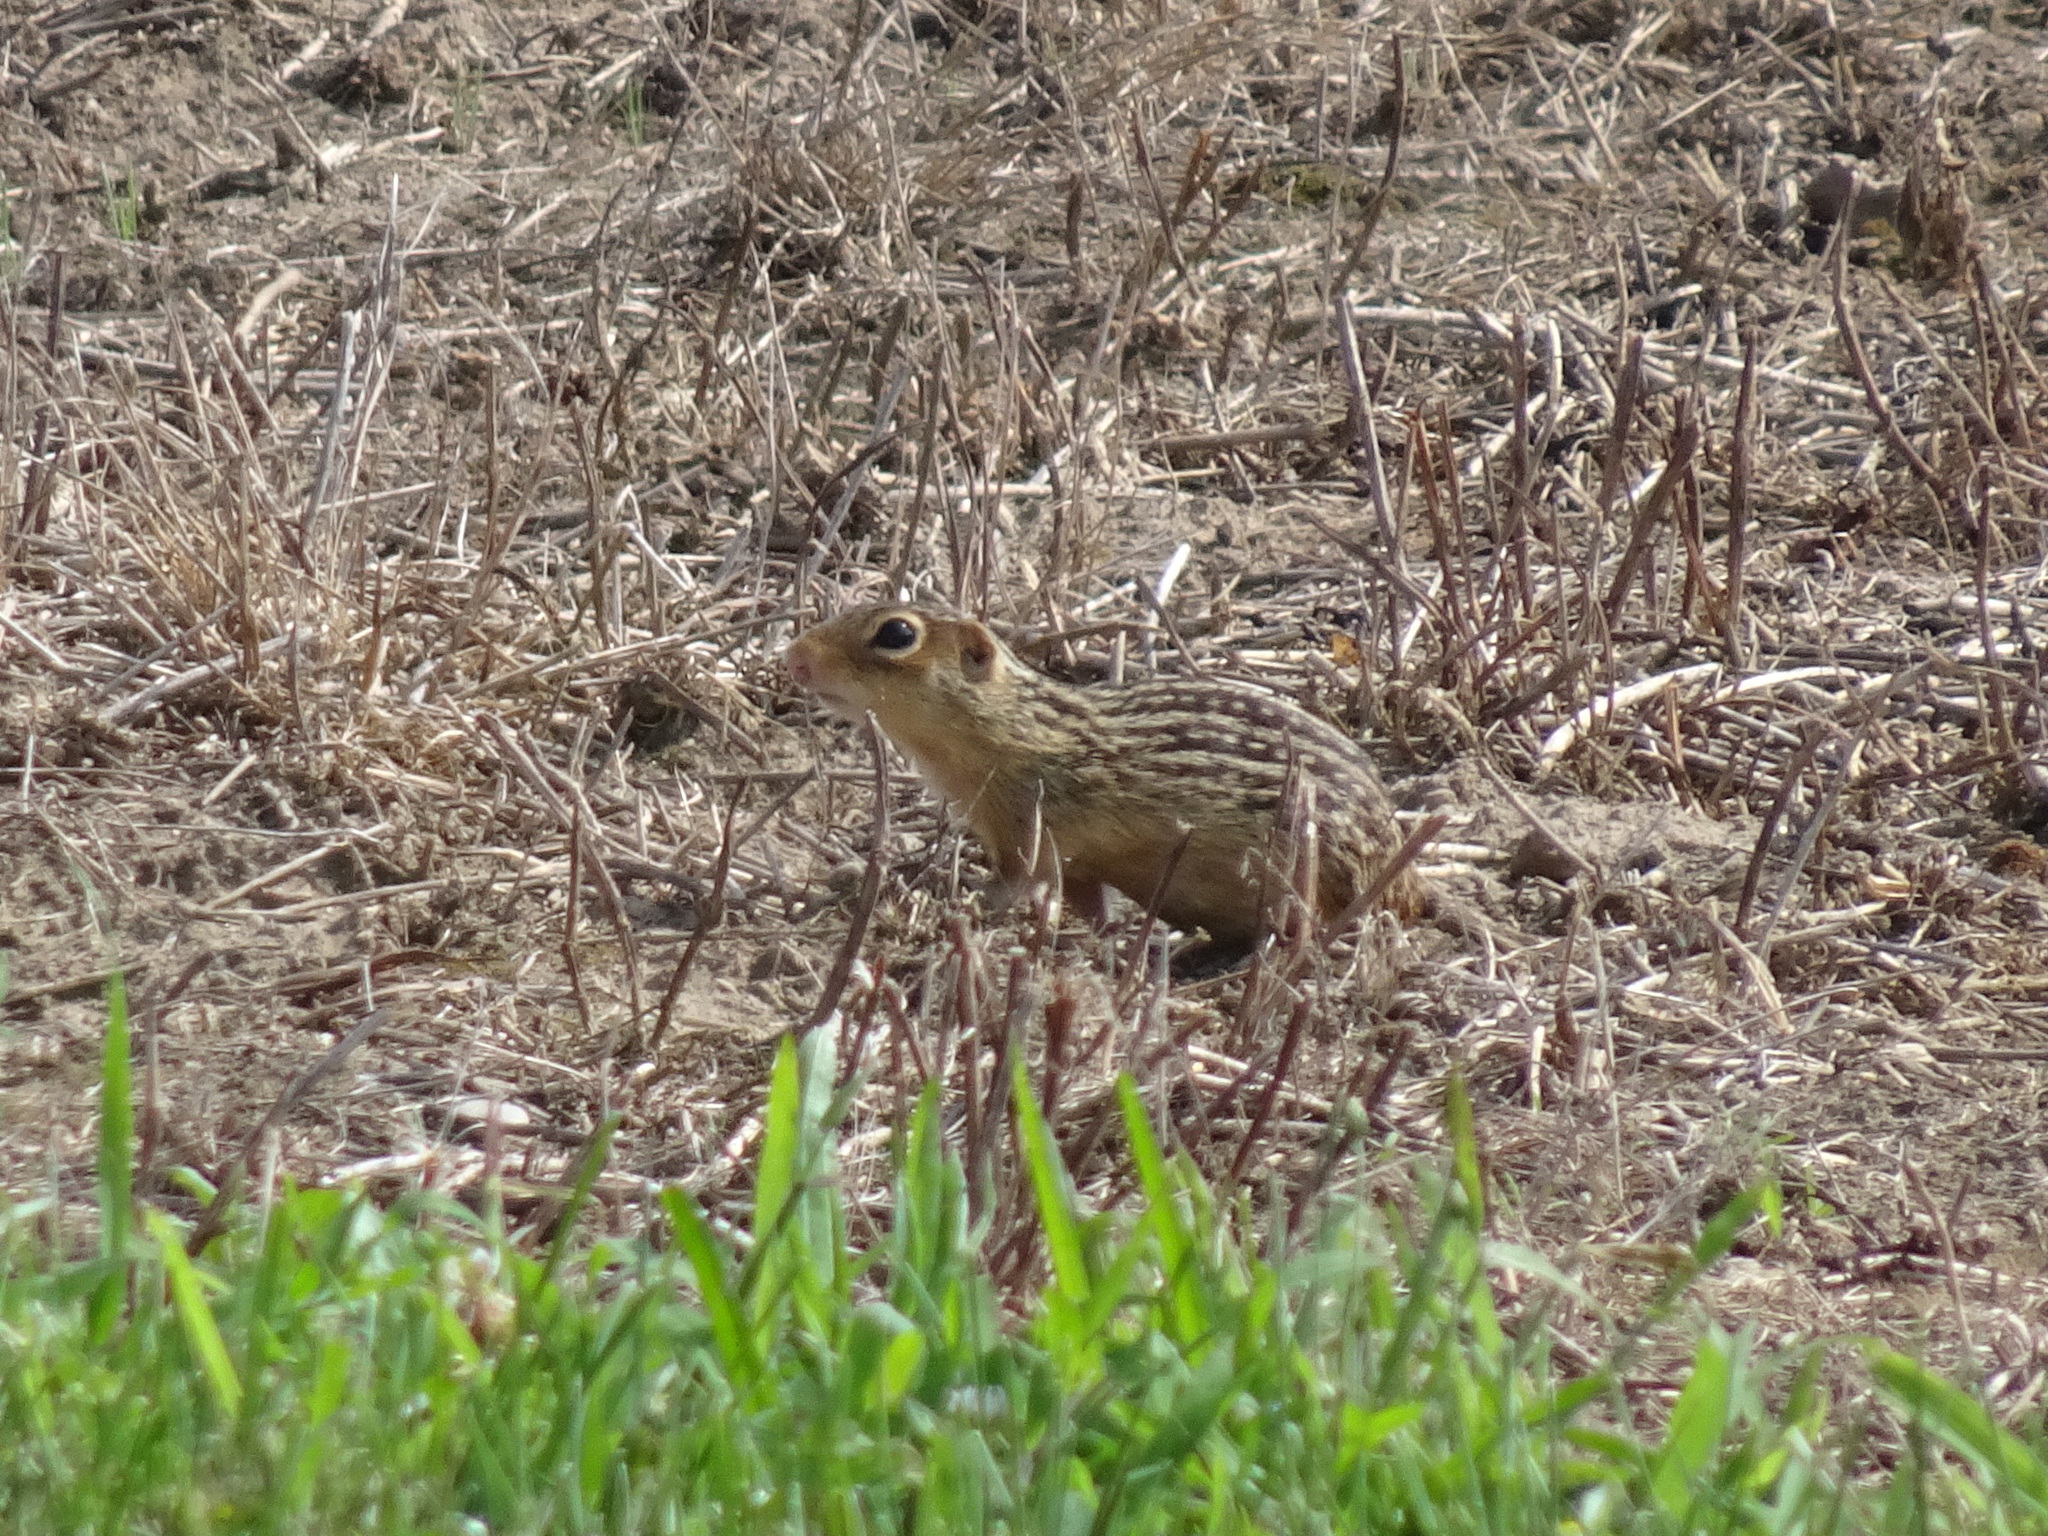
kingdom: Animalia
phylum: Chordata
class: Mammalia
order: Rodentia
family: Sciuridae
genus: Ictidomys
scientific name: Ictidomys tridecemlineatus
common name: Thirteen-lined ground squirrel
